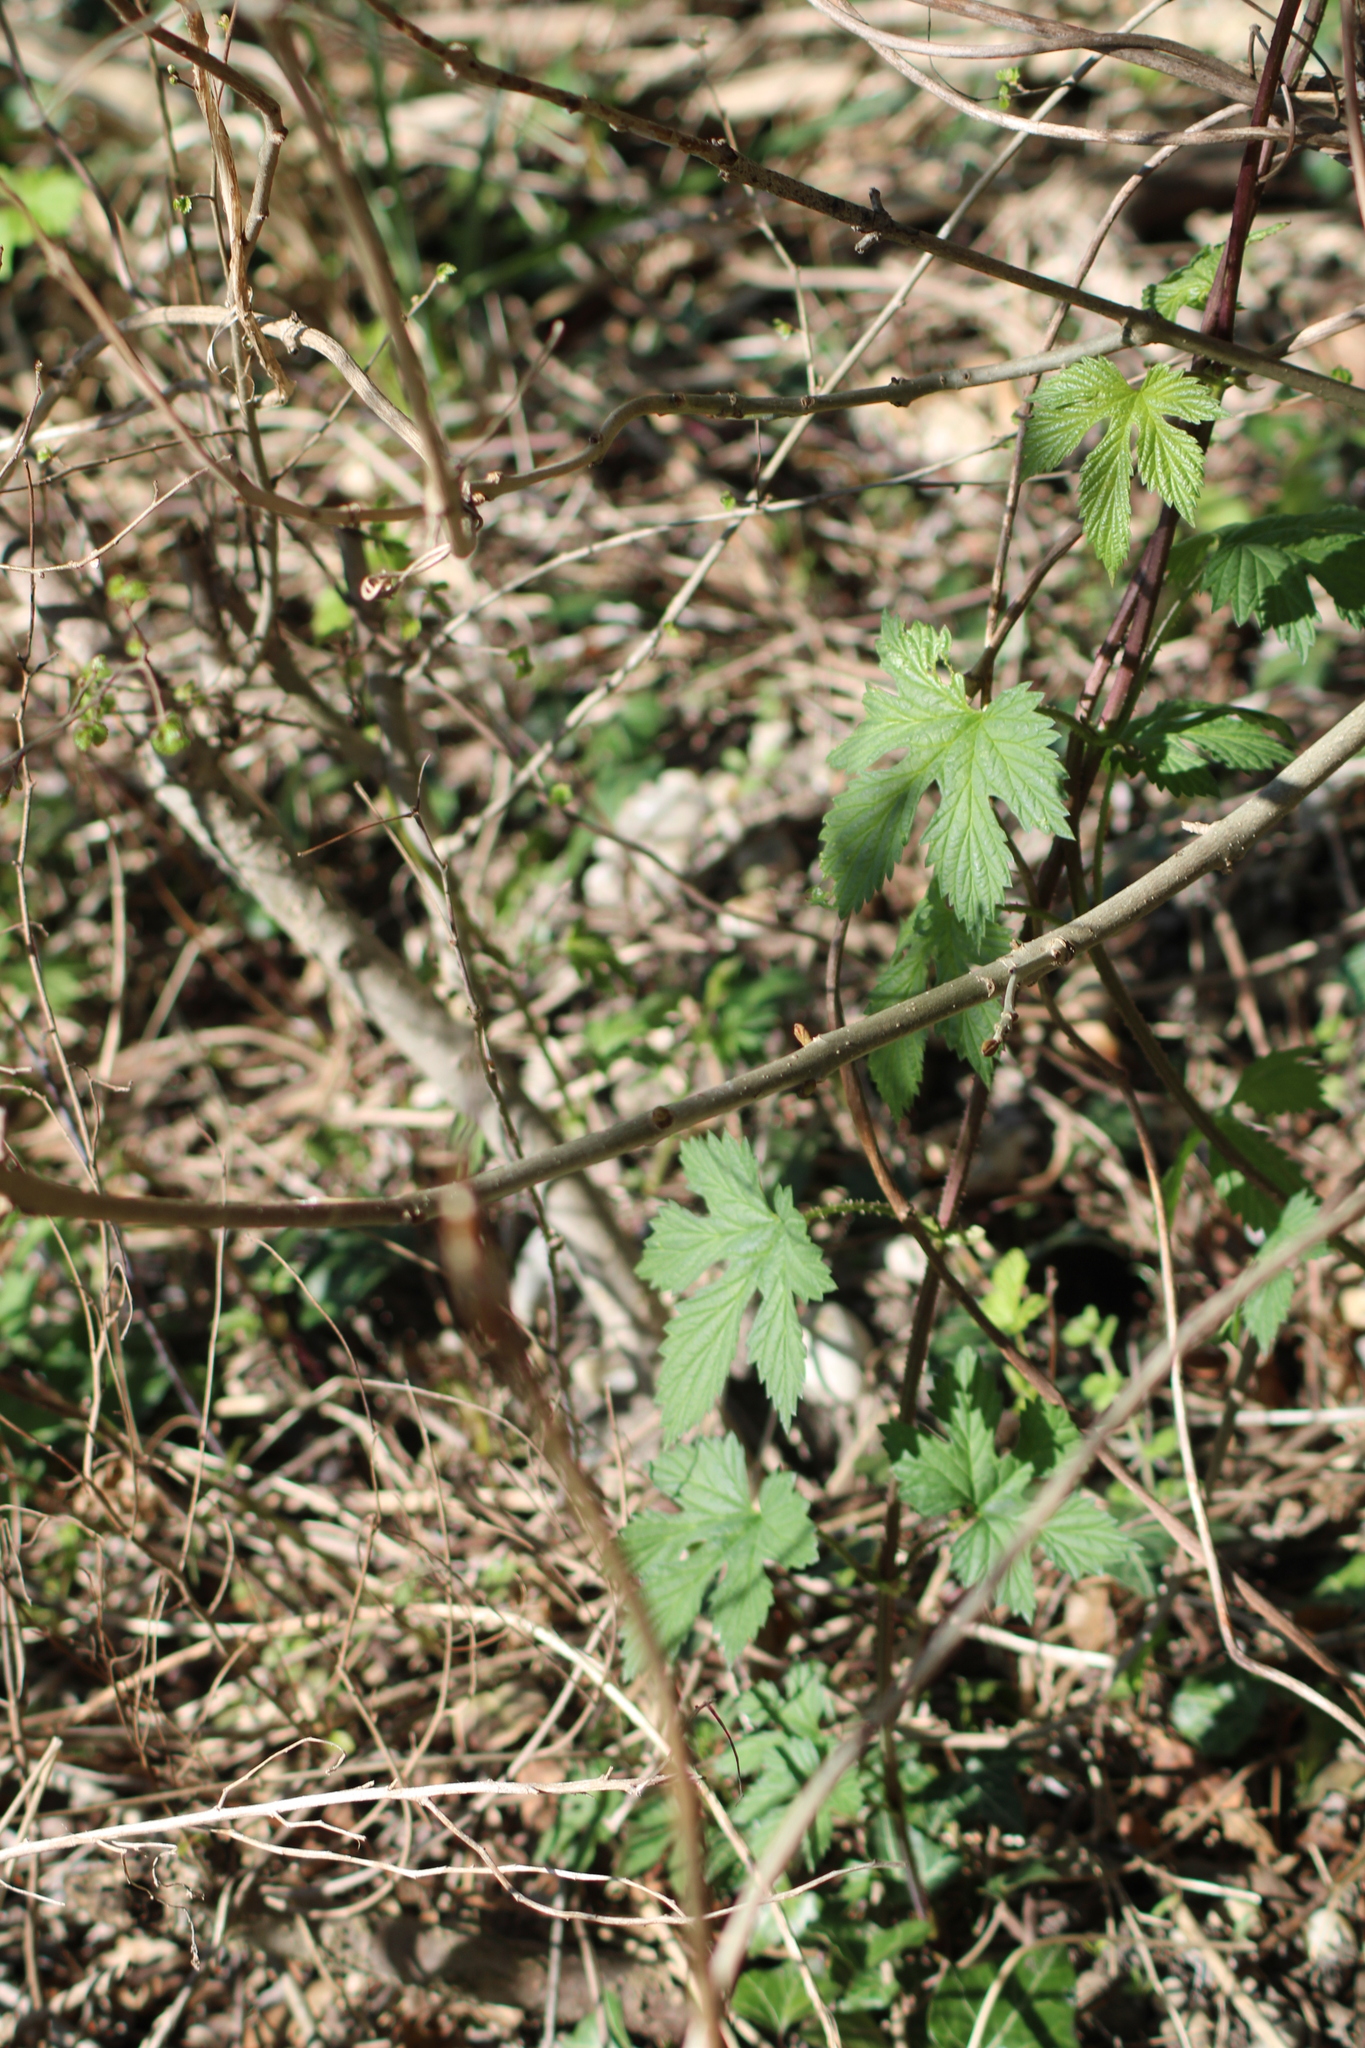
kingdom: Plantae
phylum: Tracheophyta
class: Magnoliopsida
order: Rosales
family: Cannabaceae
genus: Humulus
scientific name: Humulus lupulus
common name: Hop
